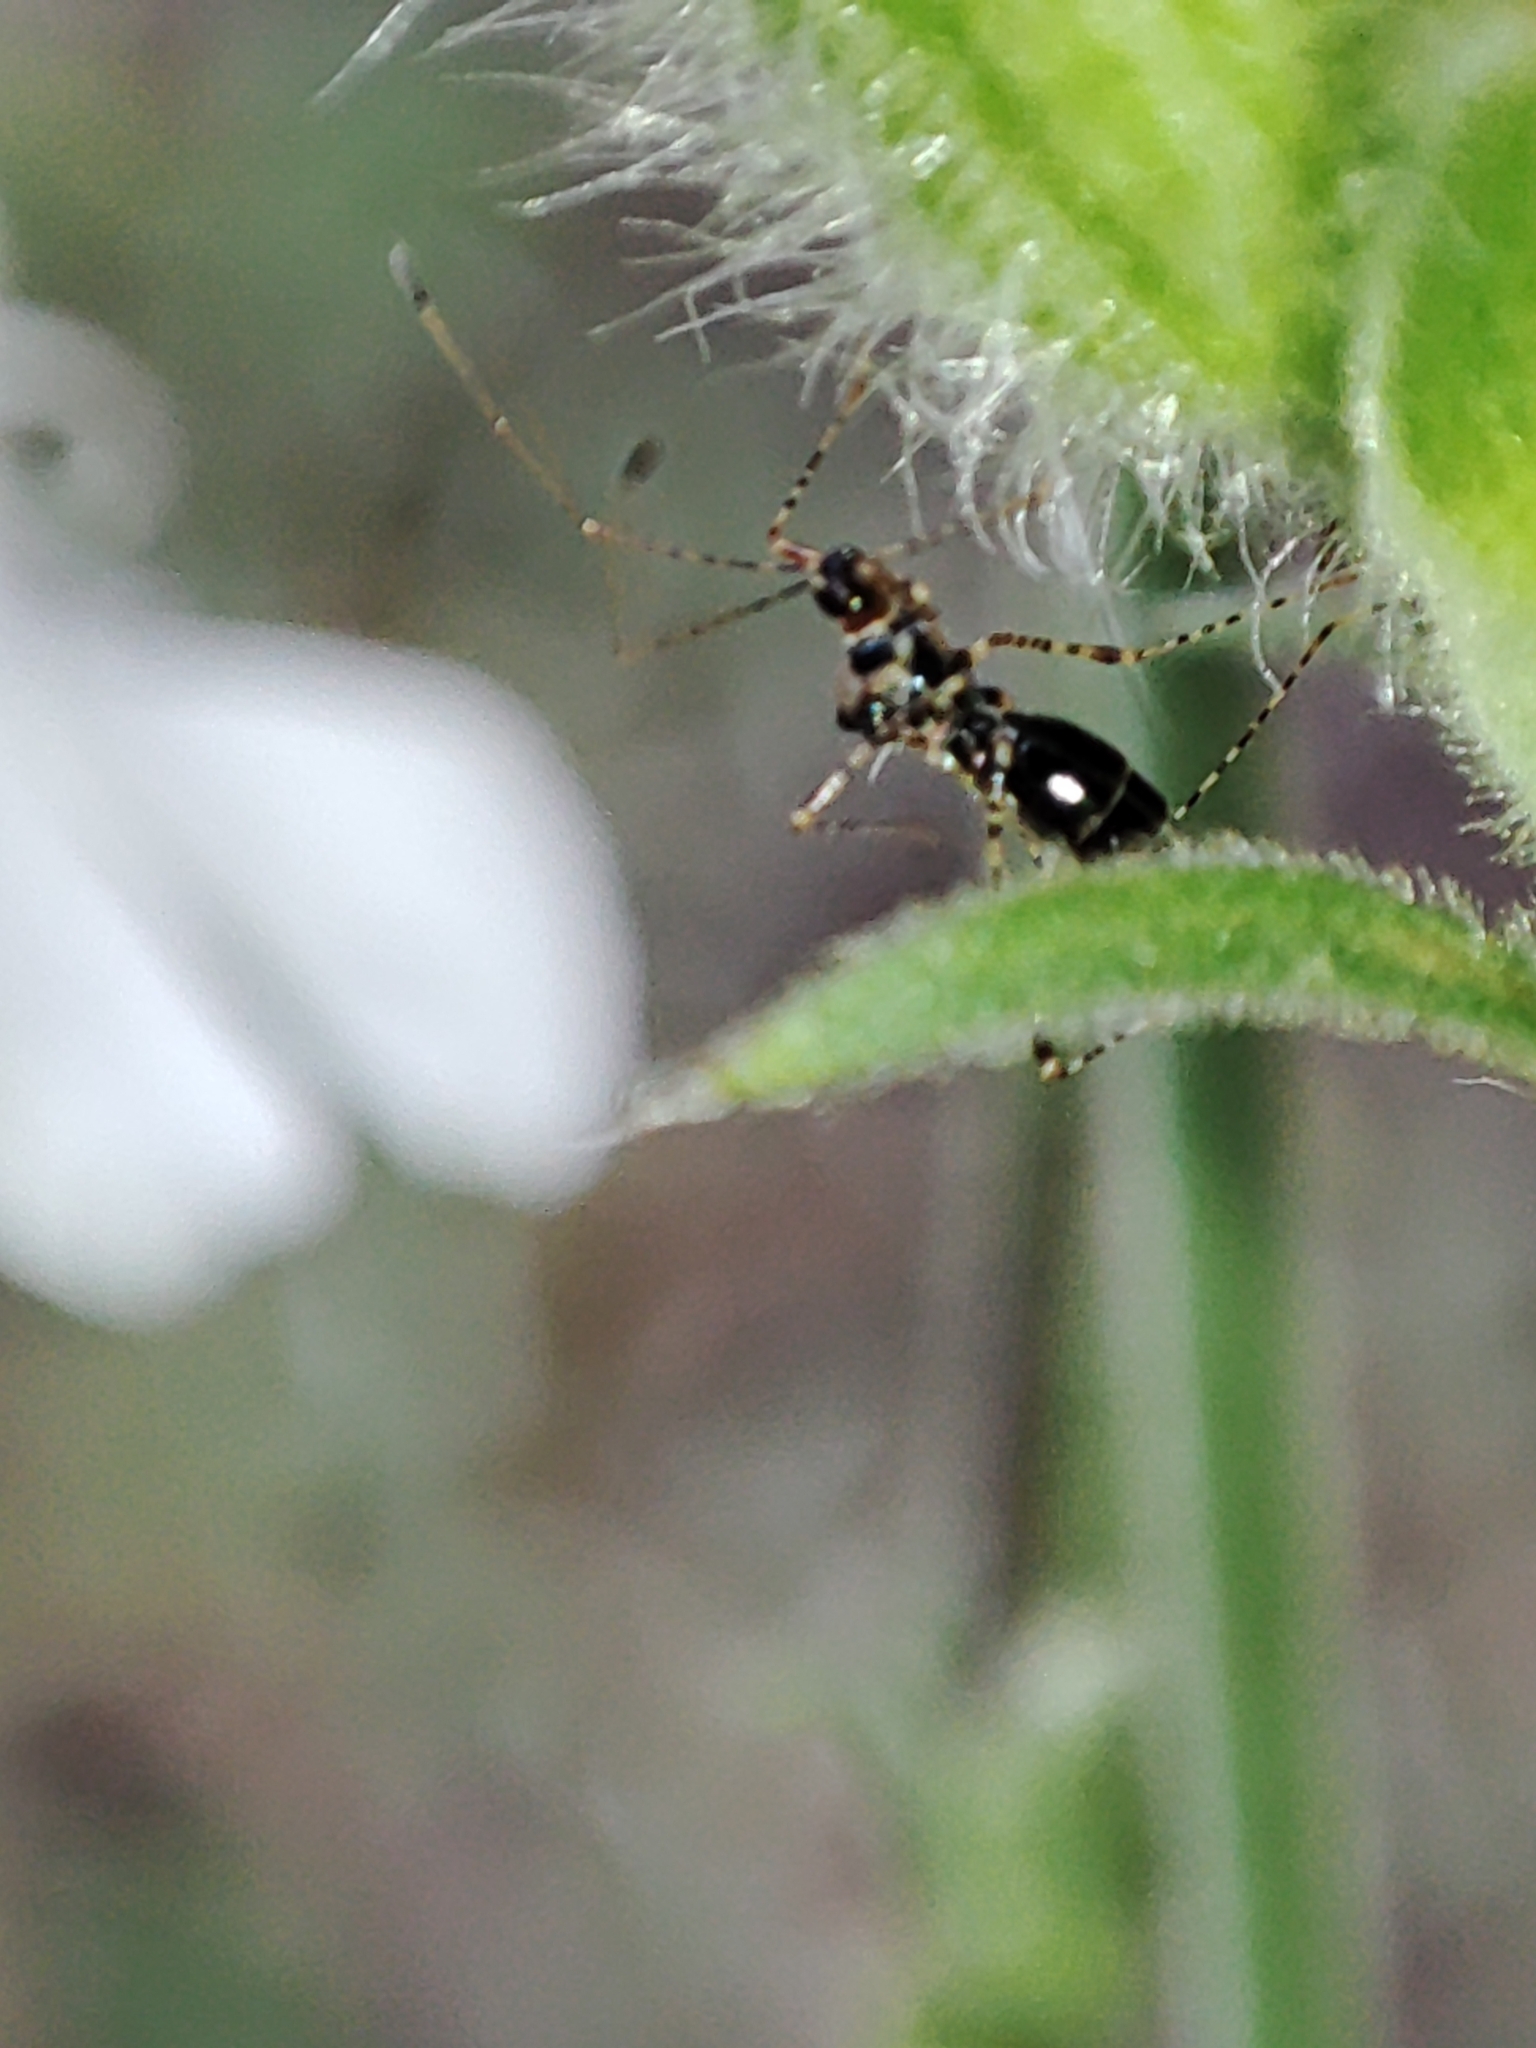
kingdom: Animalia
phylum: Arthropoda
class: Insecta
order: Hemiptera
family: Berytidae
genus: Gampsocoris
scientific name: Gampsocoris culicinus
